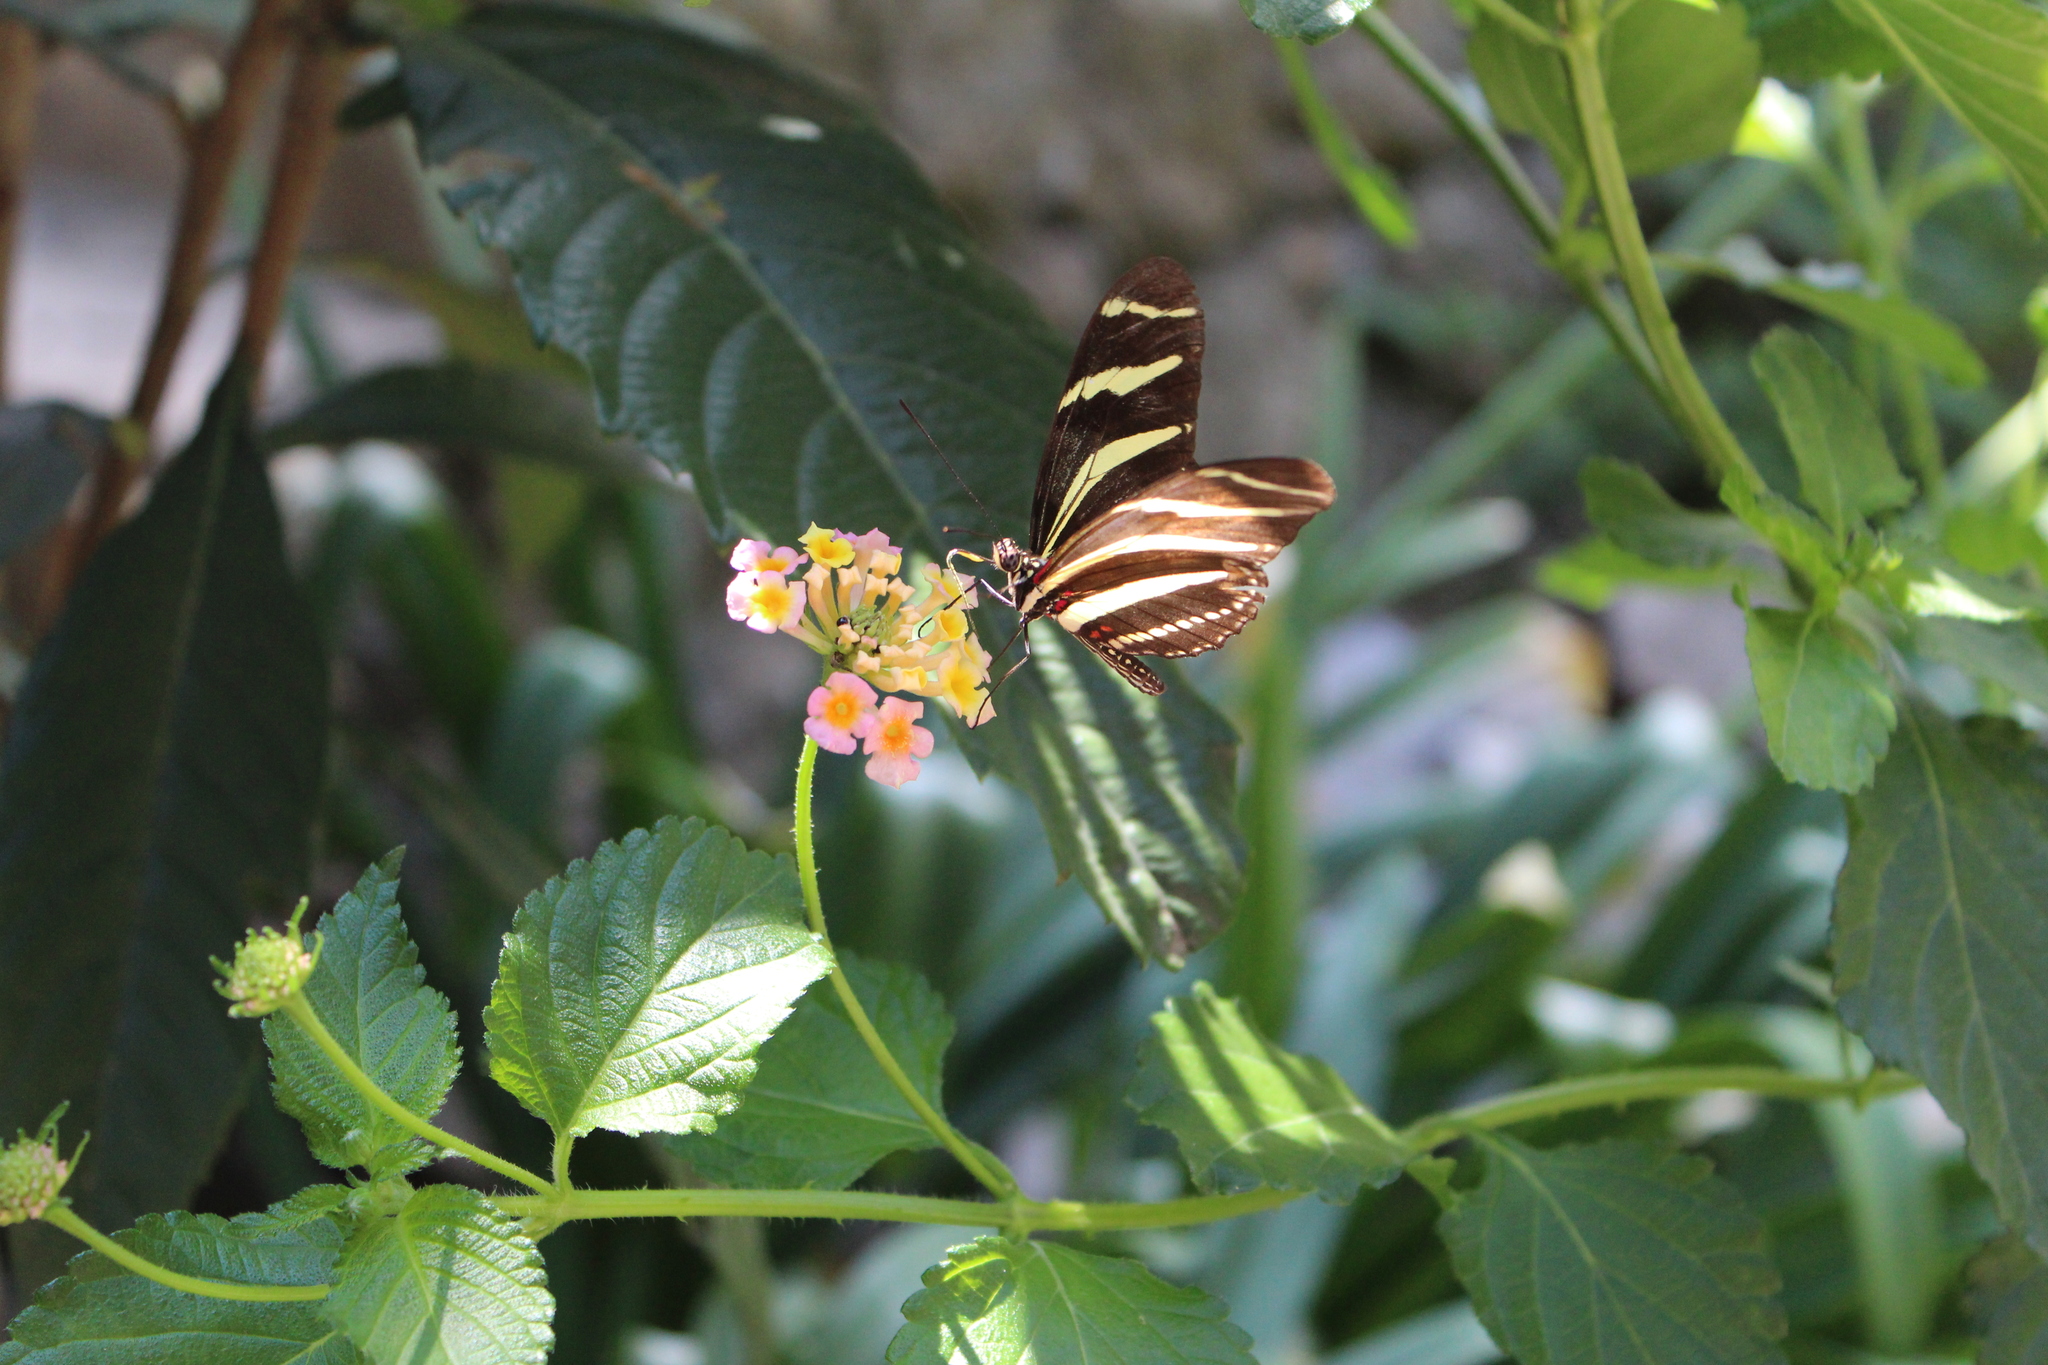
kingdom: Animalia
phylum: Arthropoda
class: Insecta
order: Lepidoptera
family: Nymphalidae
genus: Heliconius
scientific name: Heliconius charithonia
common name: Zebra long wing
